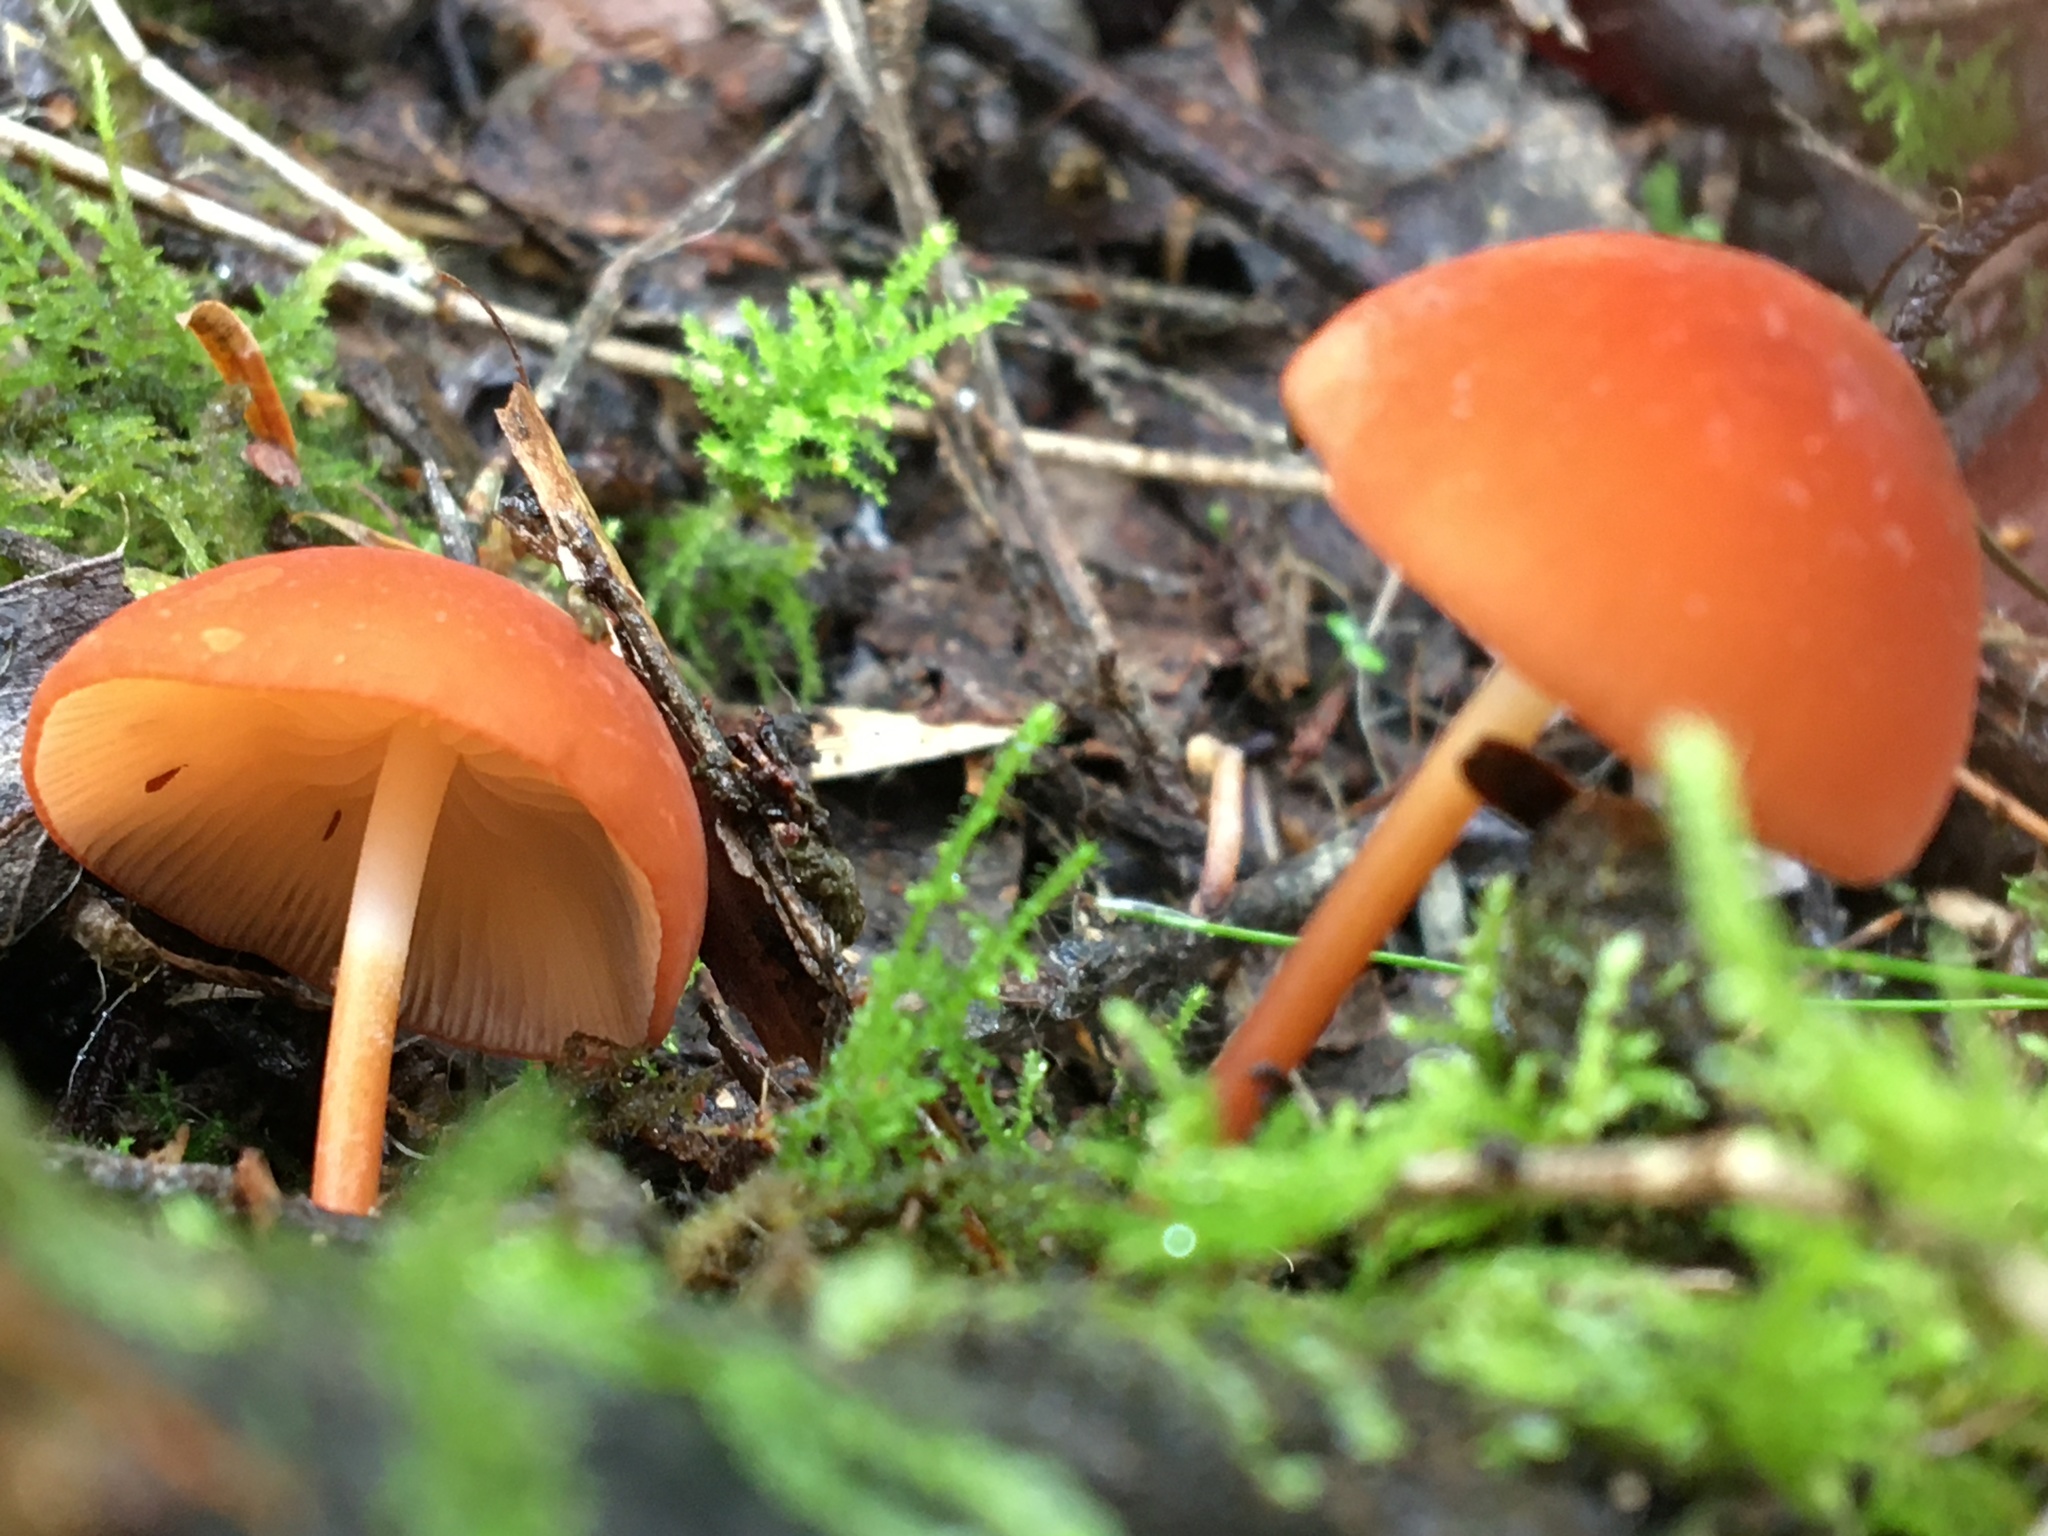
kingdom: Fungi
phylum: Basidiomycota
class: Agaricomycetes
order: Agaricales
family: Marasmiaceae
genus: Marasmius
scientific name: Marasmius elegans
